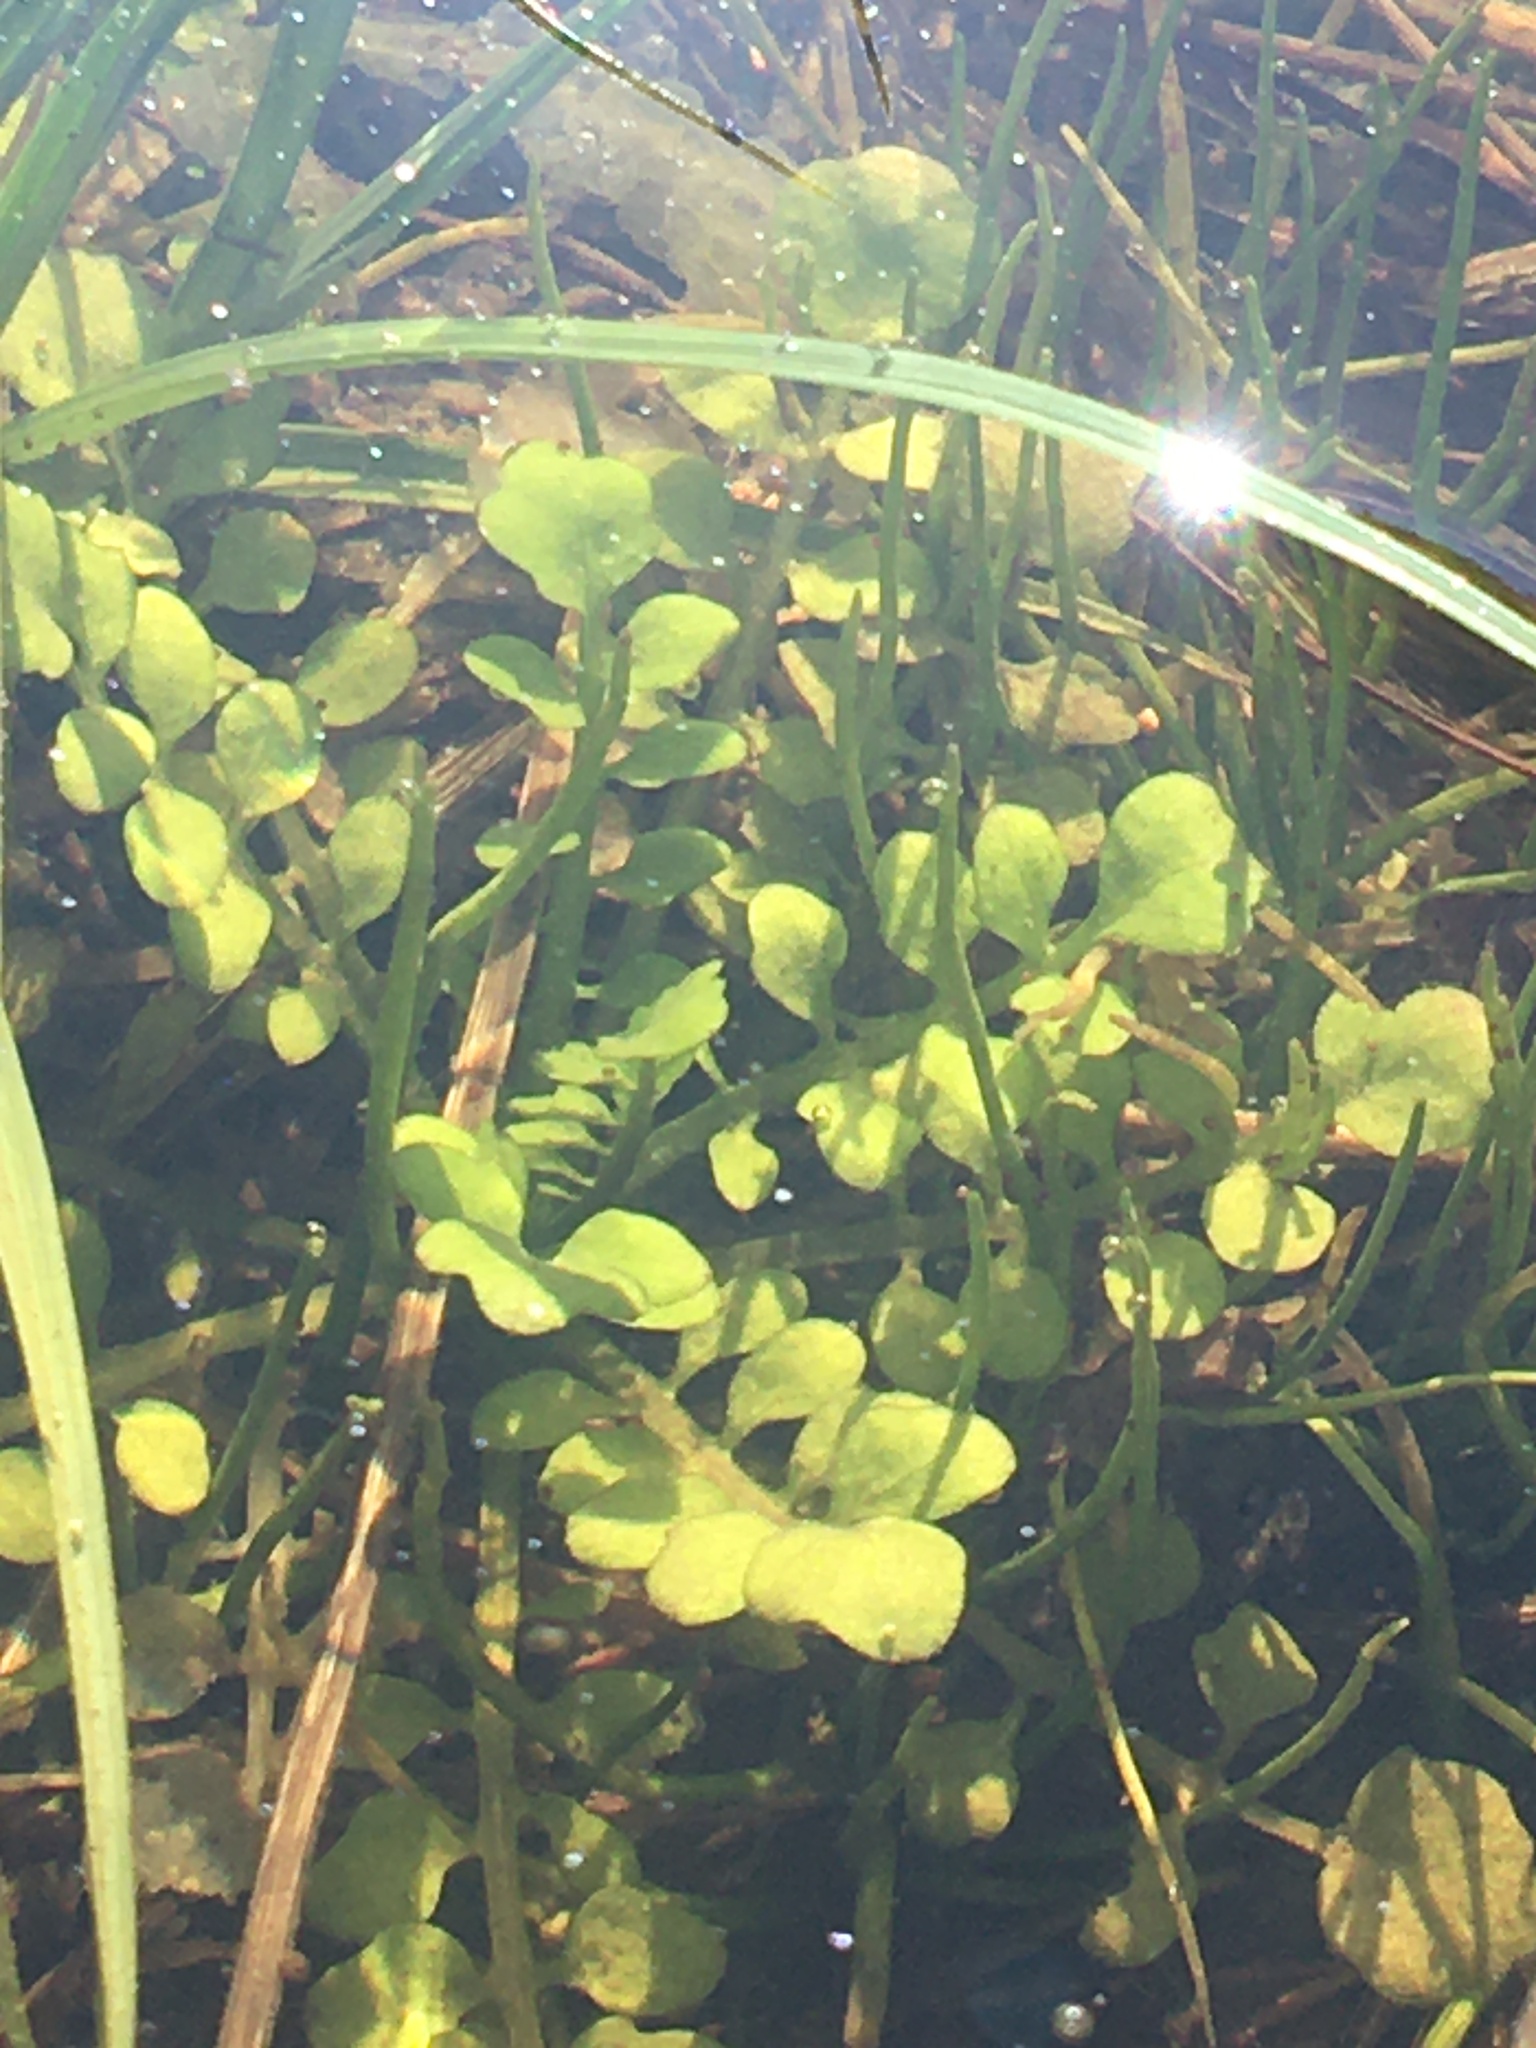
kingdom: Plantae
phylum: Tracheophyta
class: Magnoliopsida
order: Brassicales
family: Brassicaceae
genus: Cardamine
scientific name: Cardamine pensylvanica
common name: Pennsylvania bittercress
